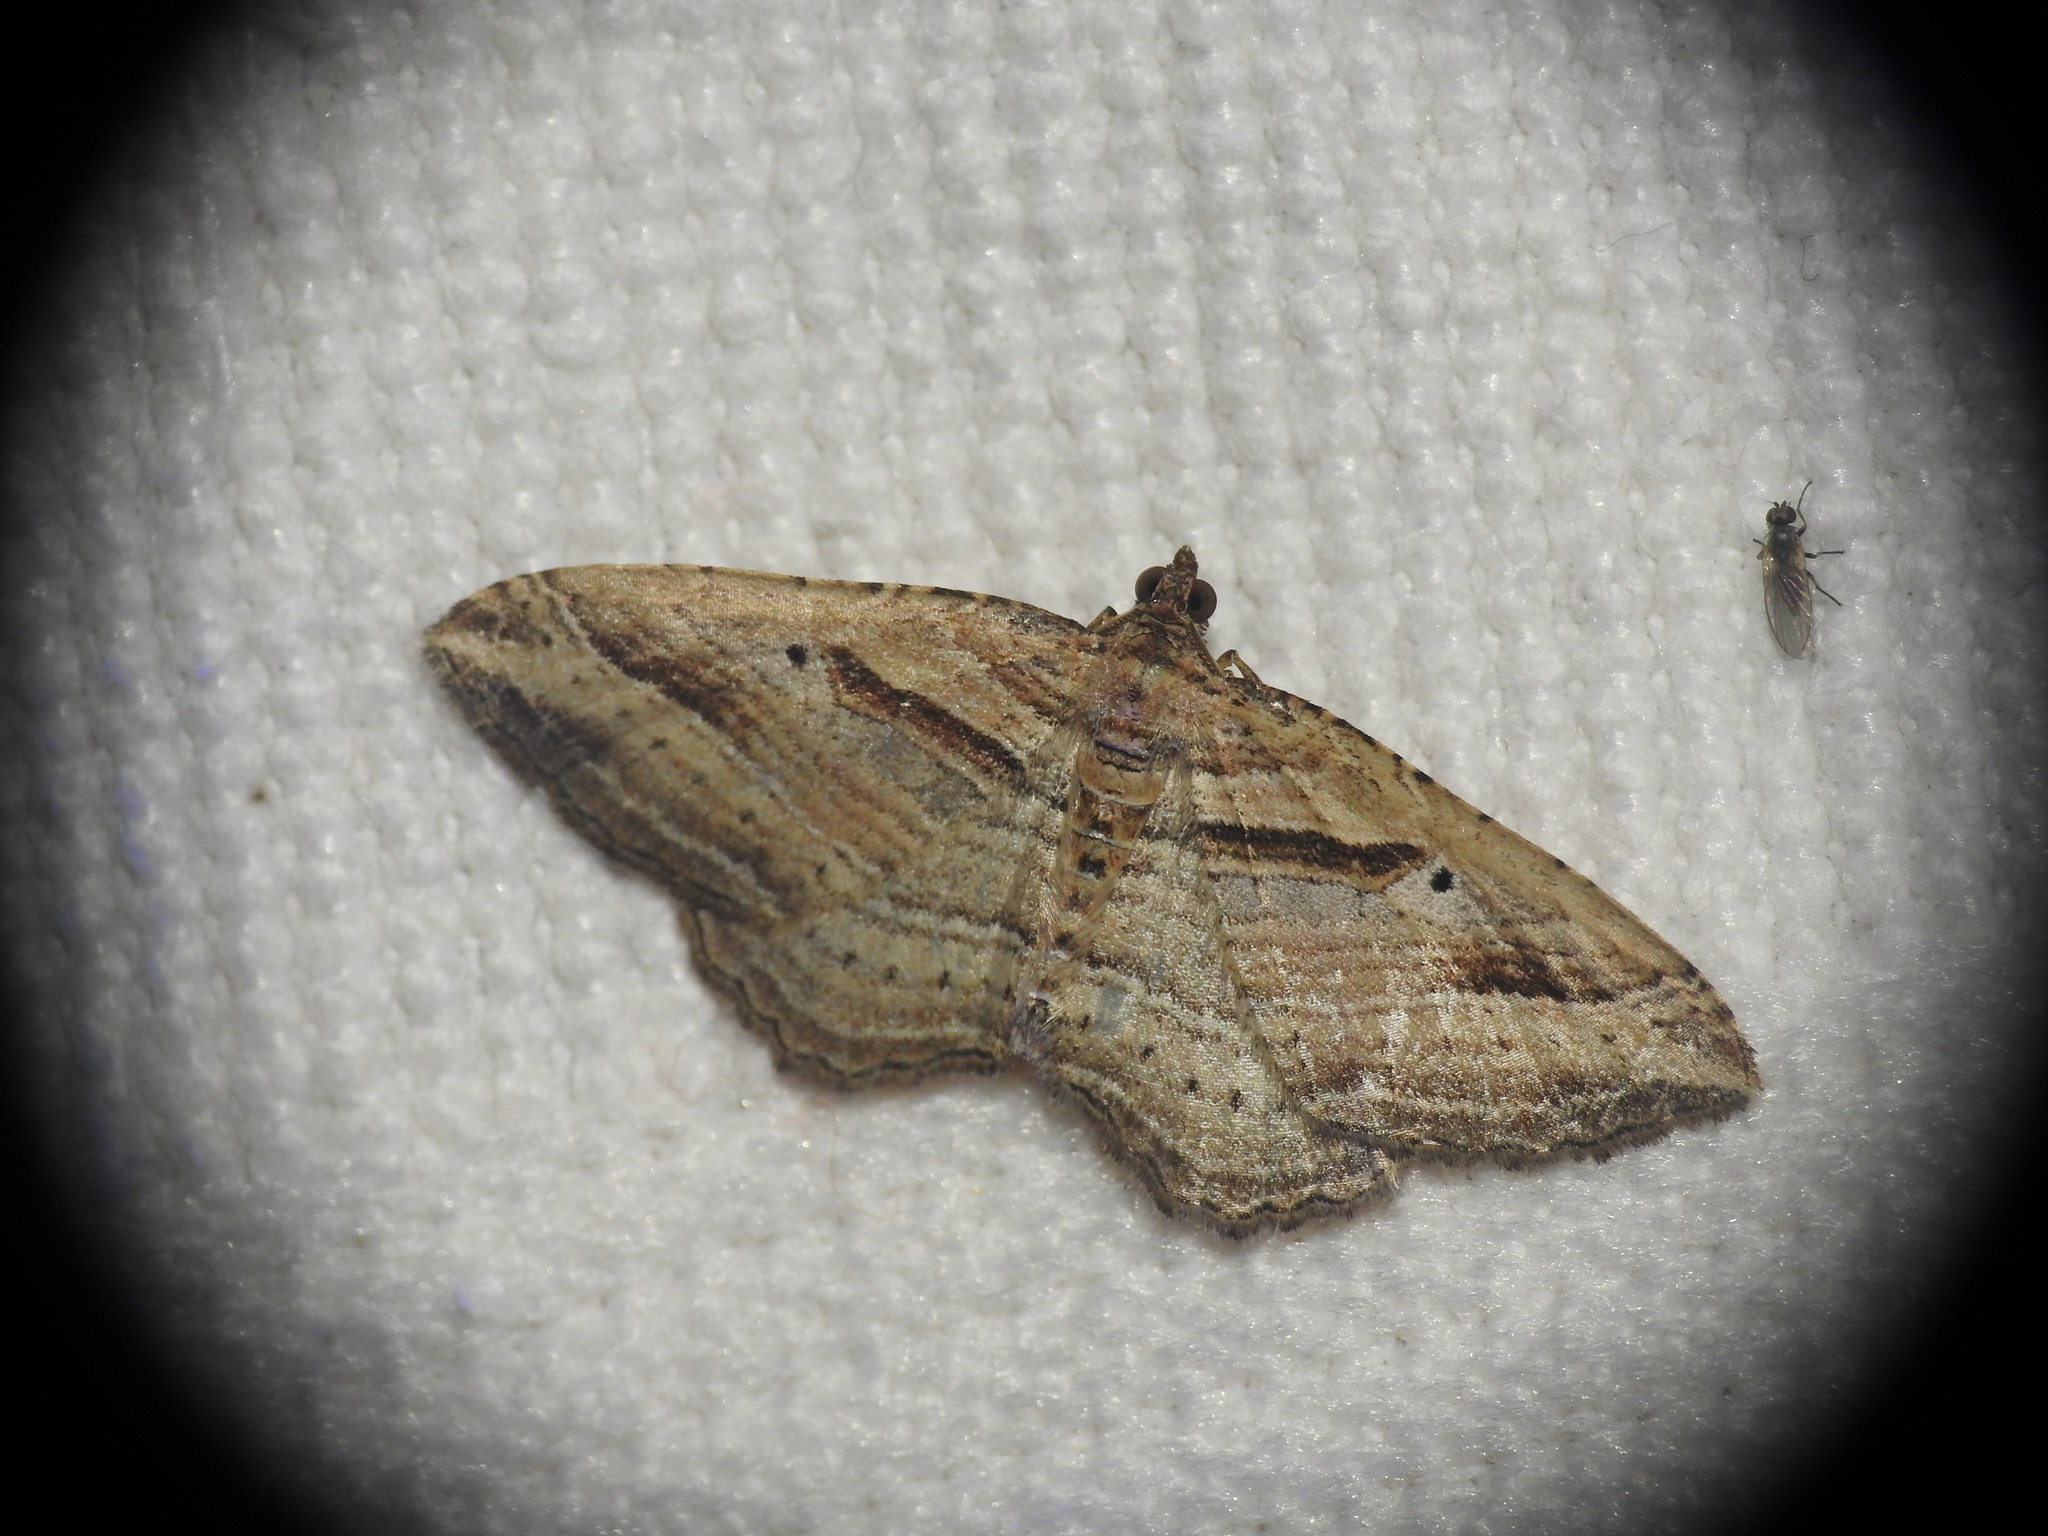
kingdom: Animalia
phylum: Arthropoda
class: Insecta
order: Lepidoptera
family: Geometridae
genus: Costaconvexa
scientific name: Costaconvexa polygrammata
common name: Many-lined
